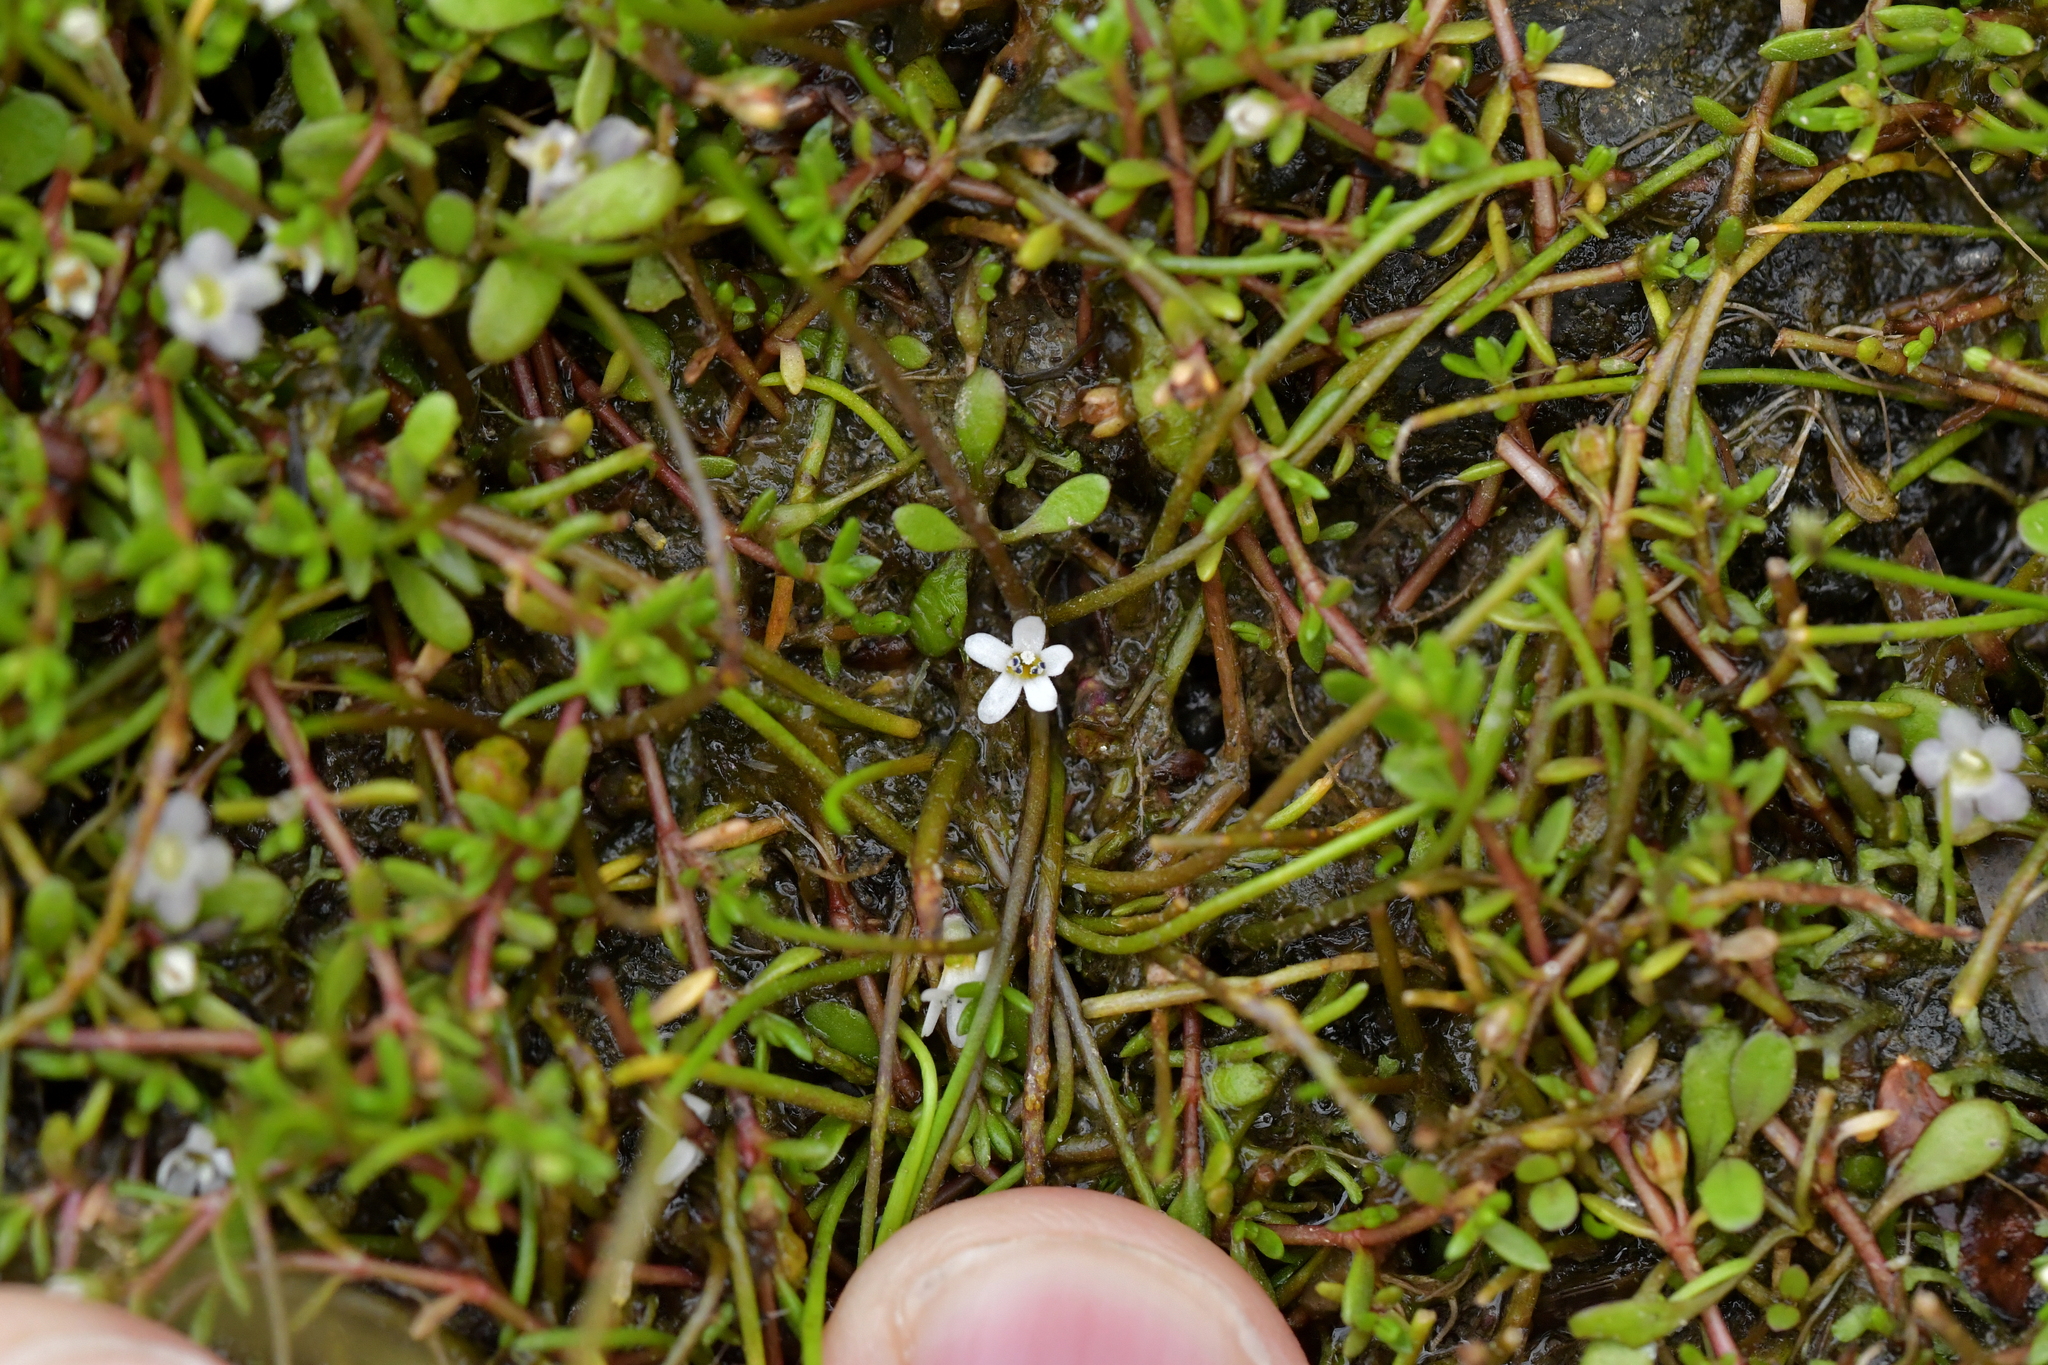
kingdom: Plantae
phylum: Tracheophyta
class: Magnoliopsida
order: Lamiales
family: Scrophulariaceae
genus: Limosella
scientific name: Limosella australis
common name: Welsh mudwort
